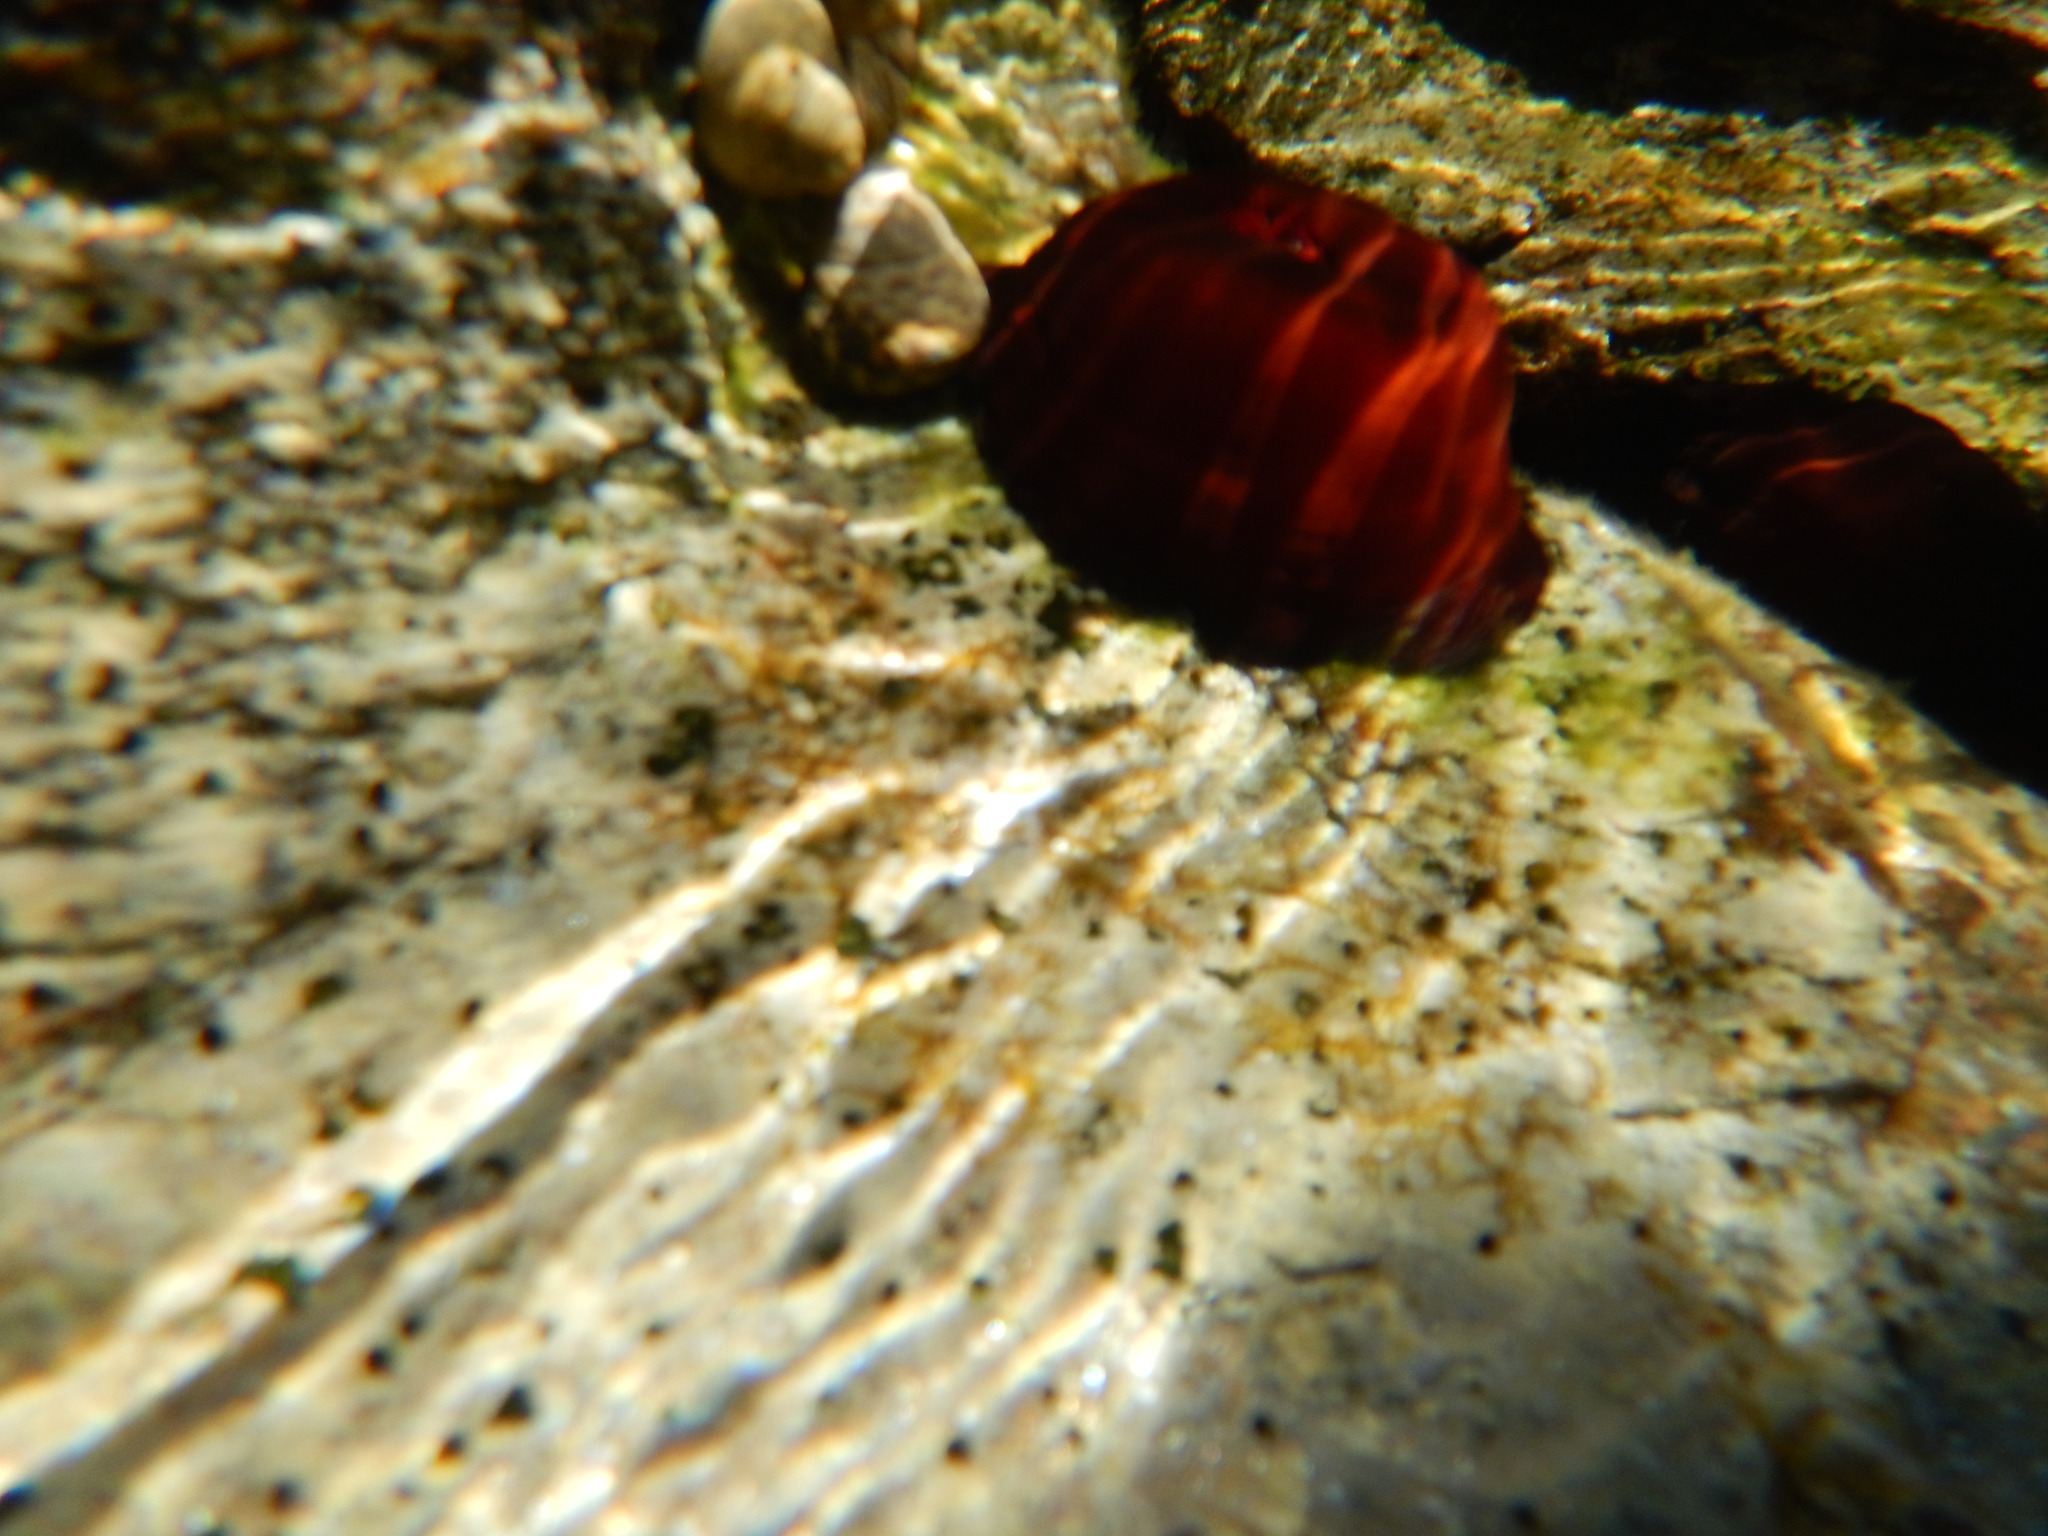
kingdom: Animalia
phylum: Cnidaria
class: Anthozoa
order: Actiniaria
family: Actiniidae
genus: Actinia
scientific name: Actinia mediterranea
